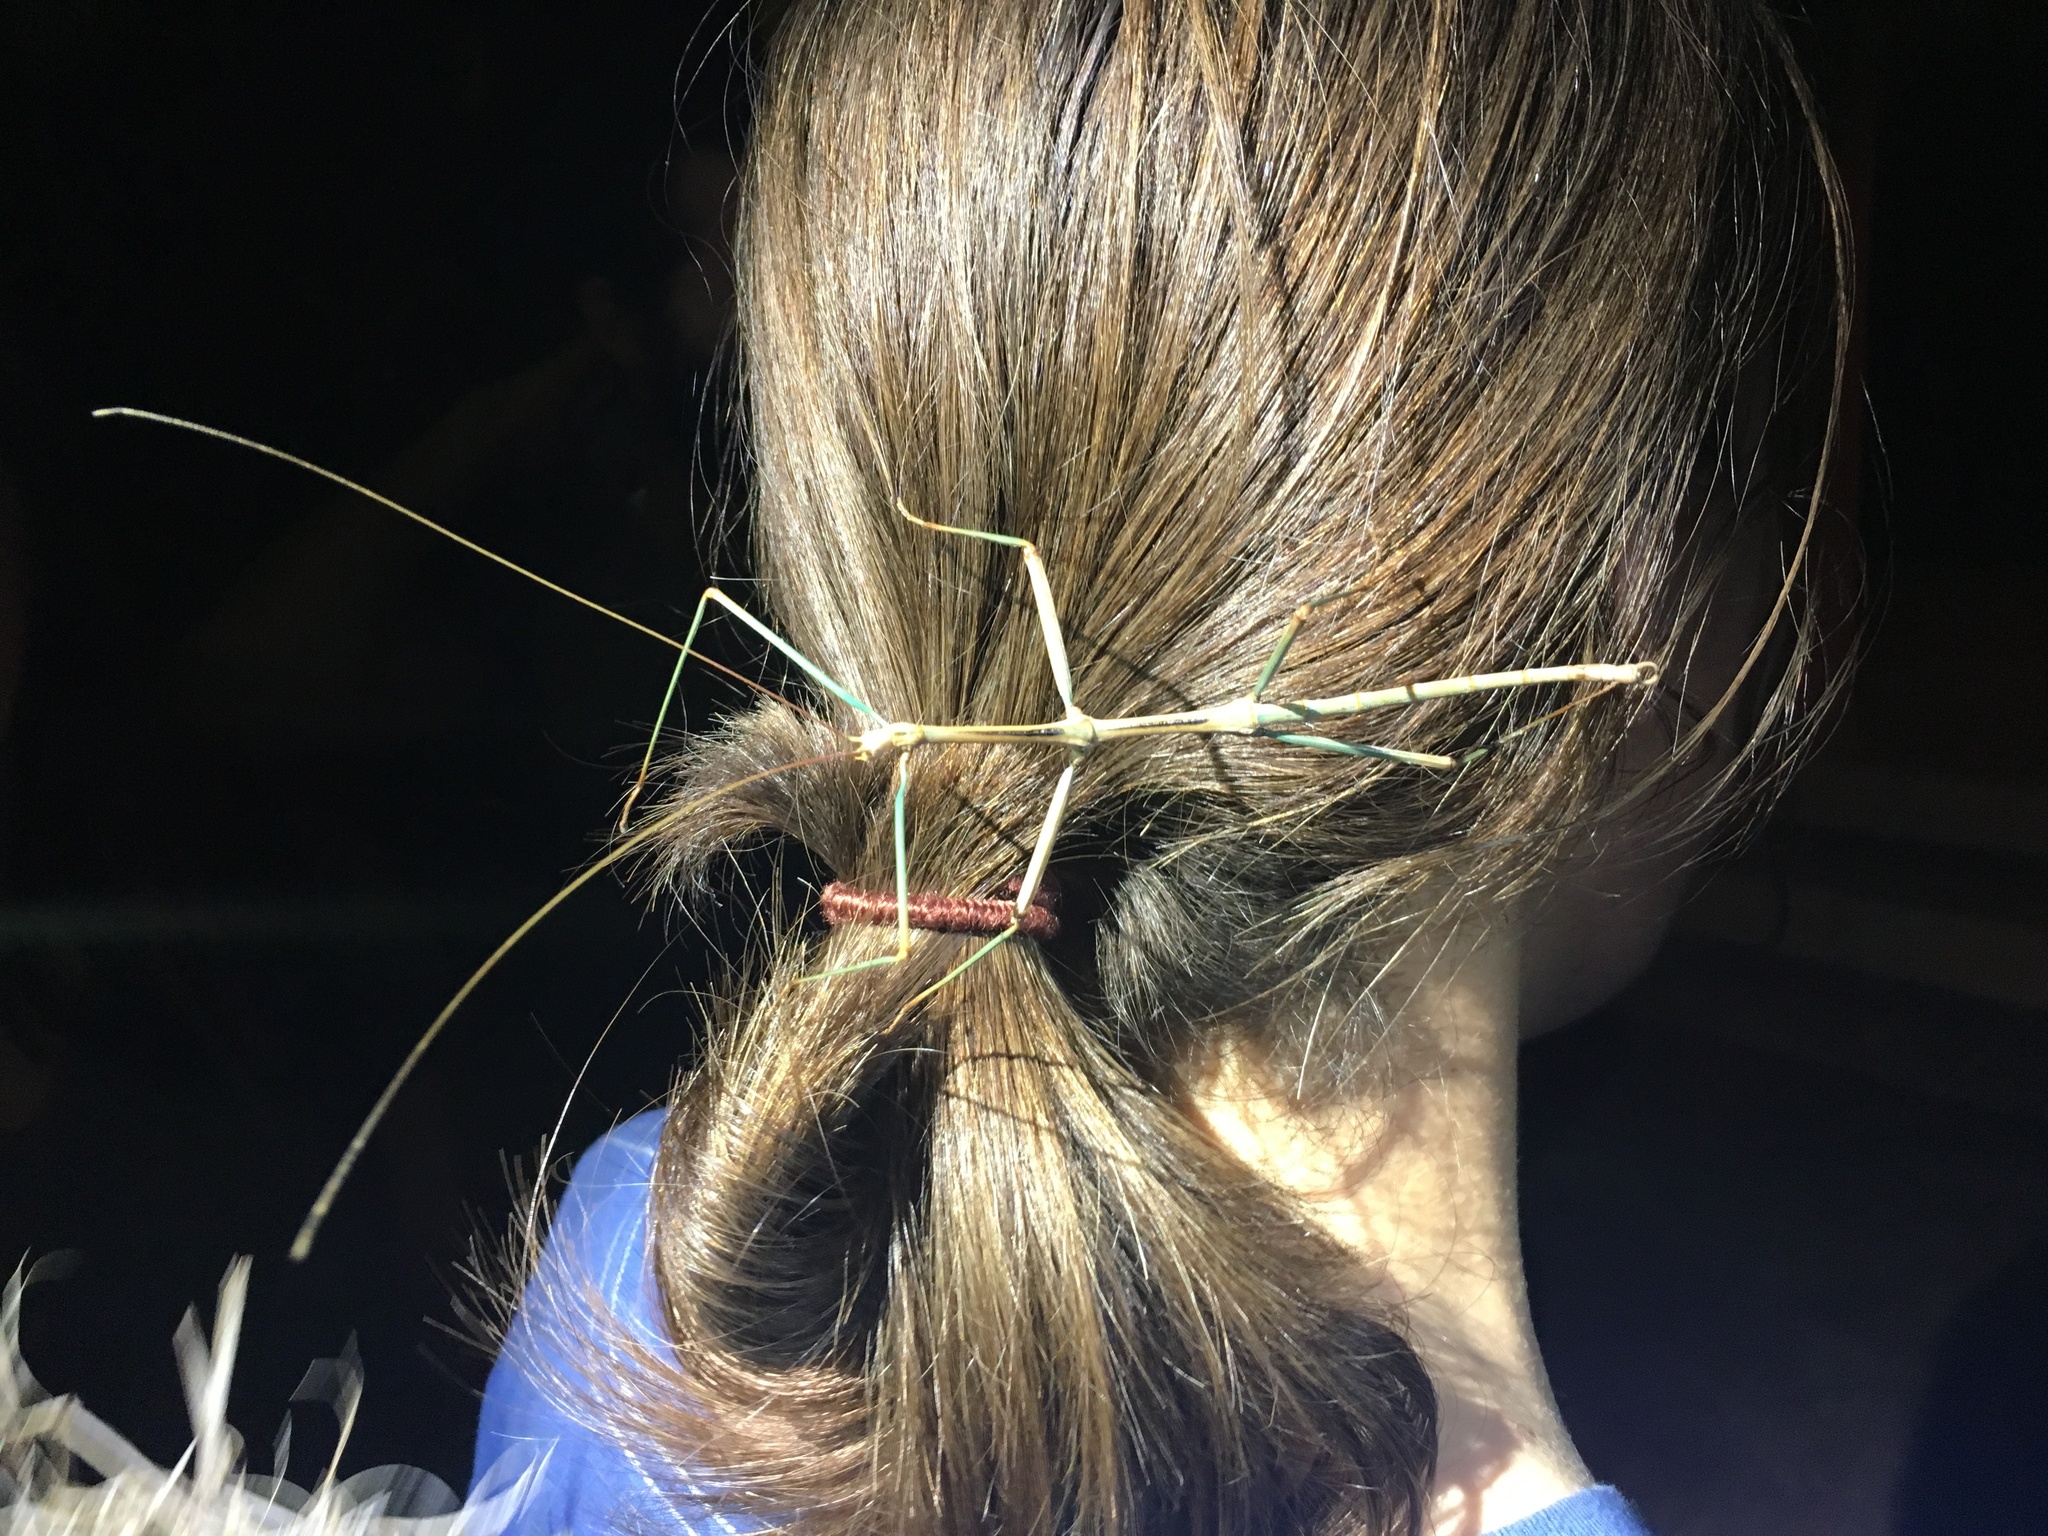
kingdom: Animalia
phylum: Arthropoda
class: Insecta
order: Phasmida
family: Diapheromeridae
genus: Diapheromera
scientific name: Diapheromera kevani
